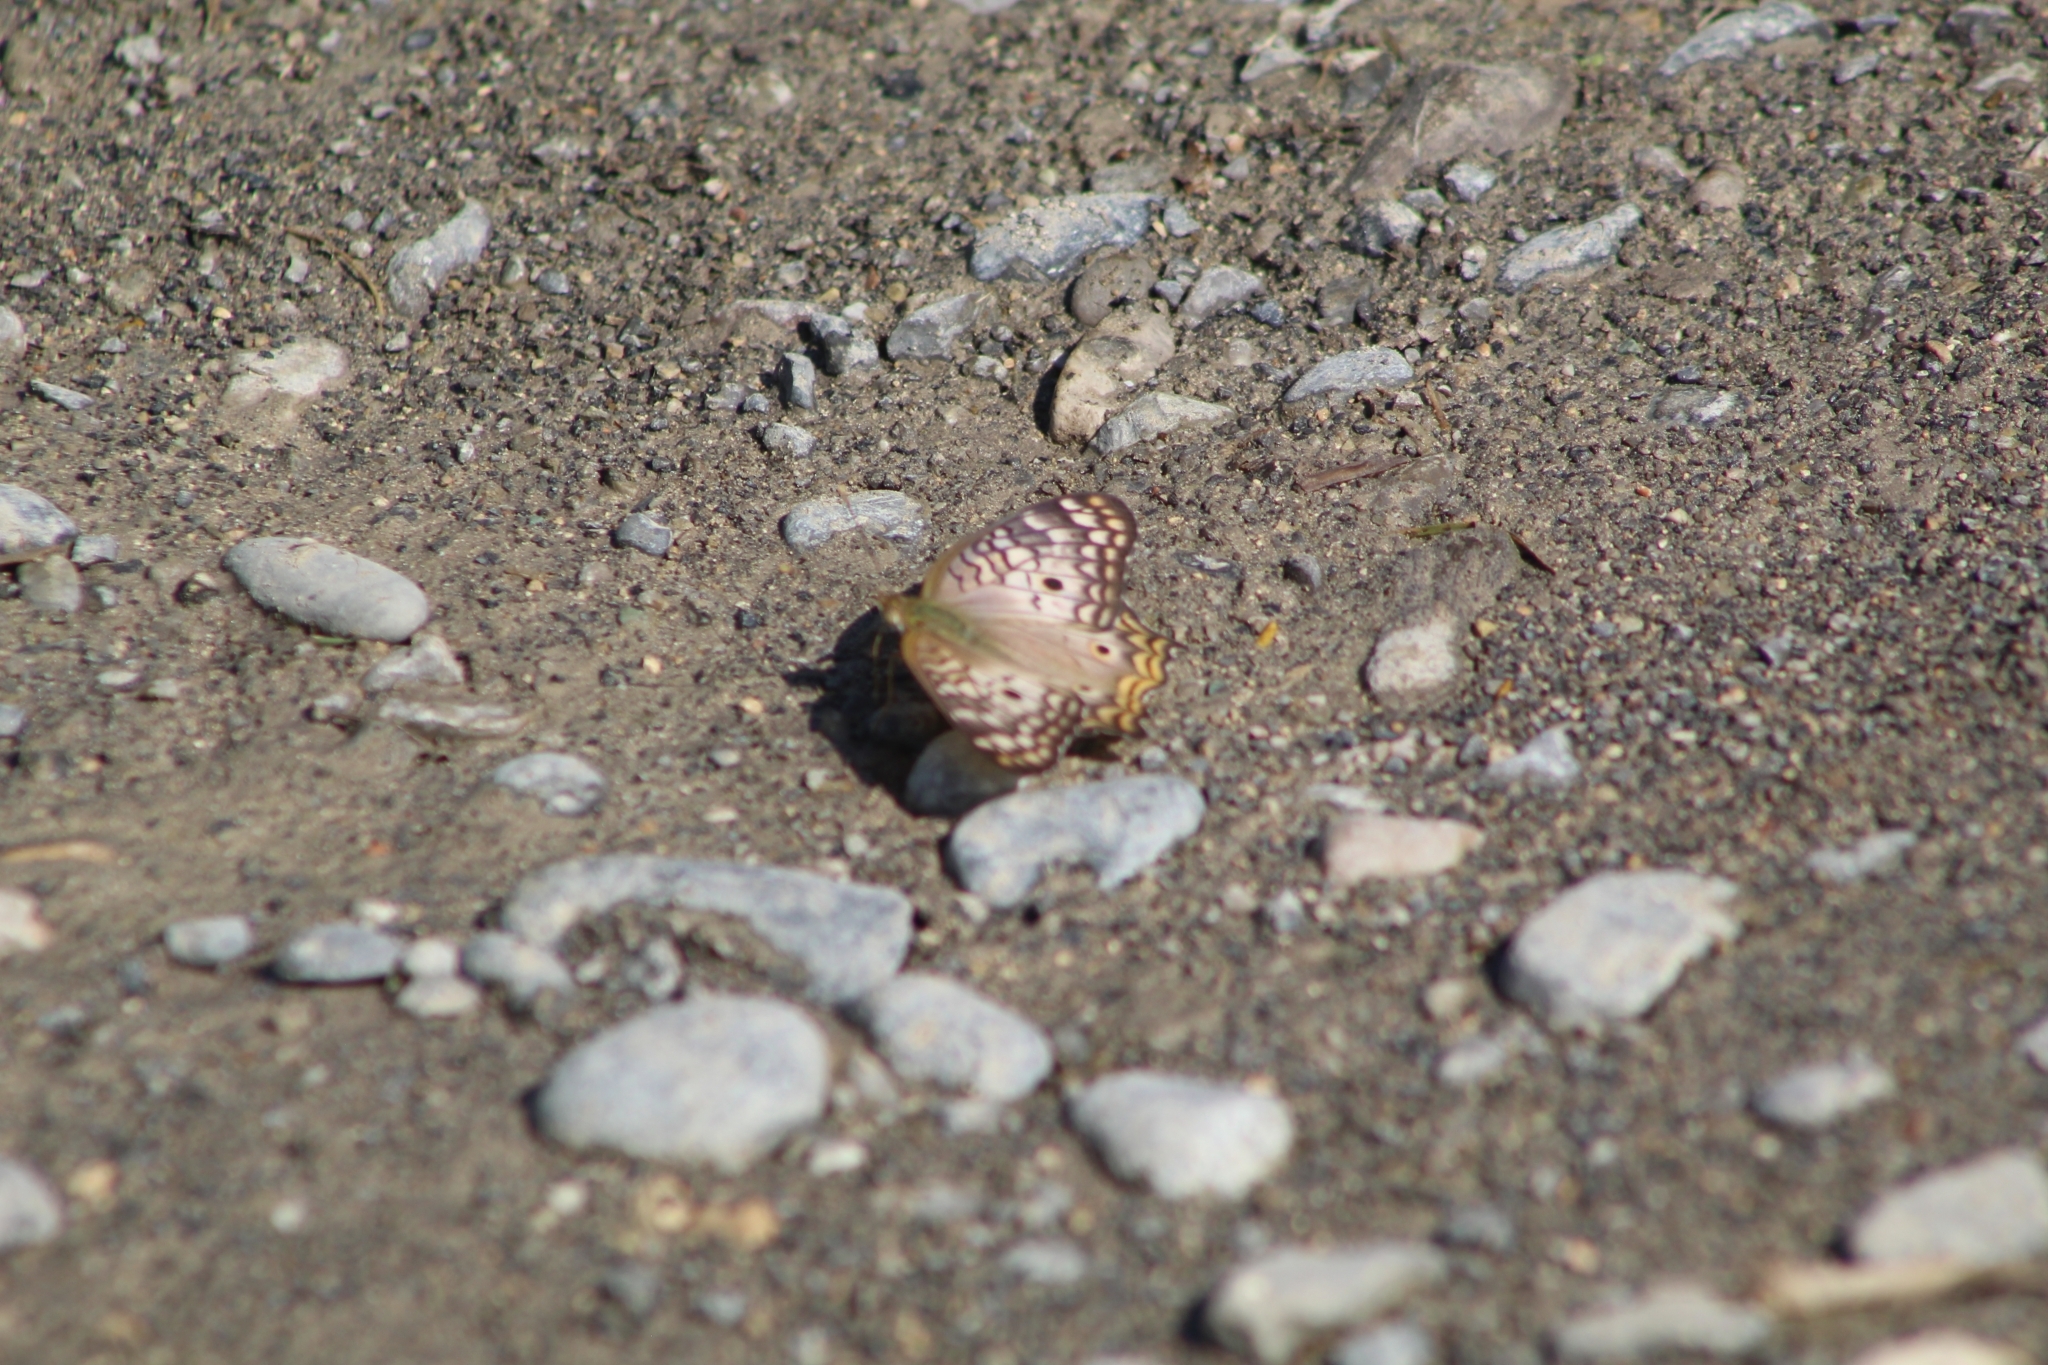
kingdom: Animalia
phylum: Arthropoda
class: Insecta
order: Lepidoptera
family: Nymphalidae
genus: Anartia
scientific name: Anartia jatrophae
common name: White peacock
